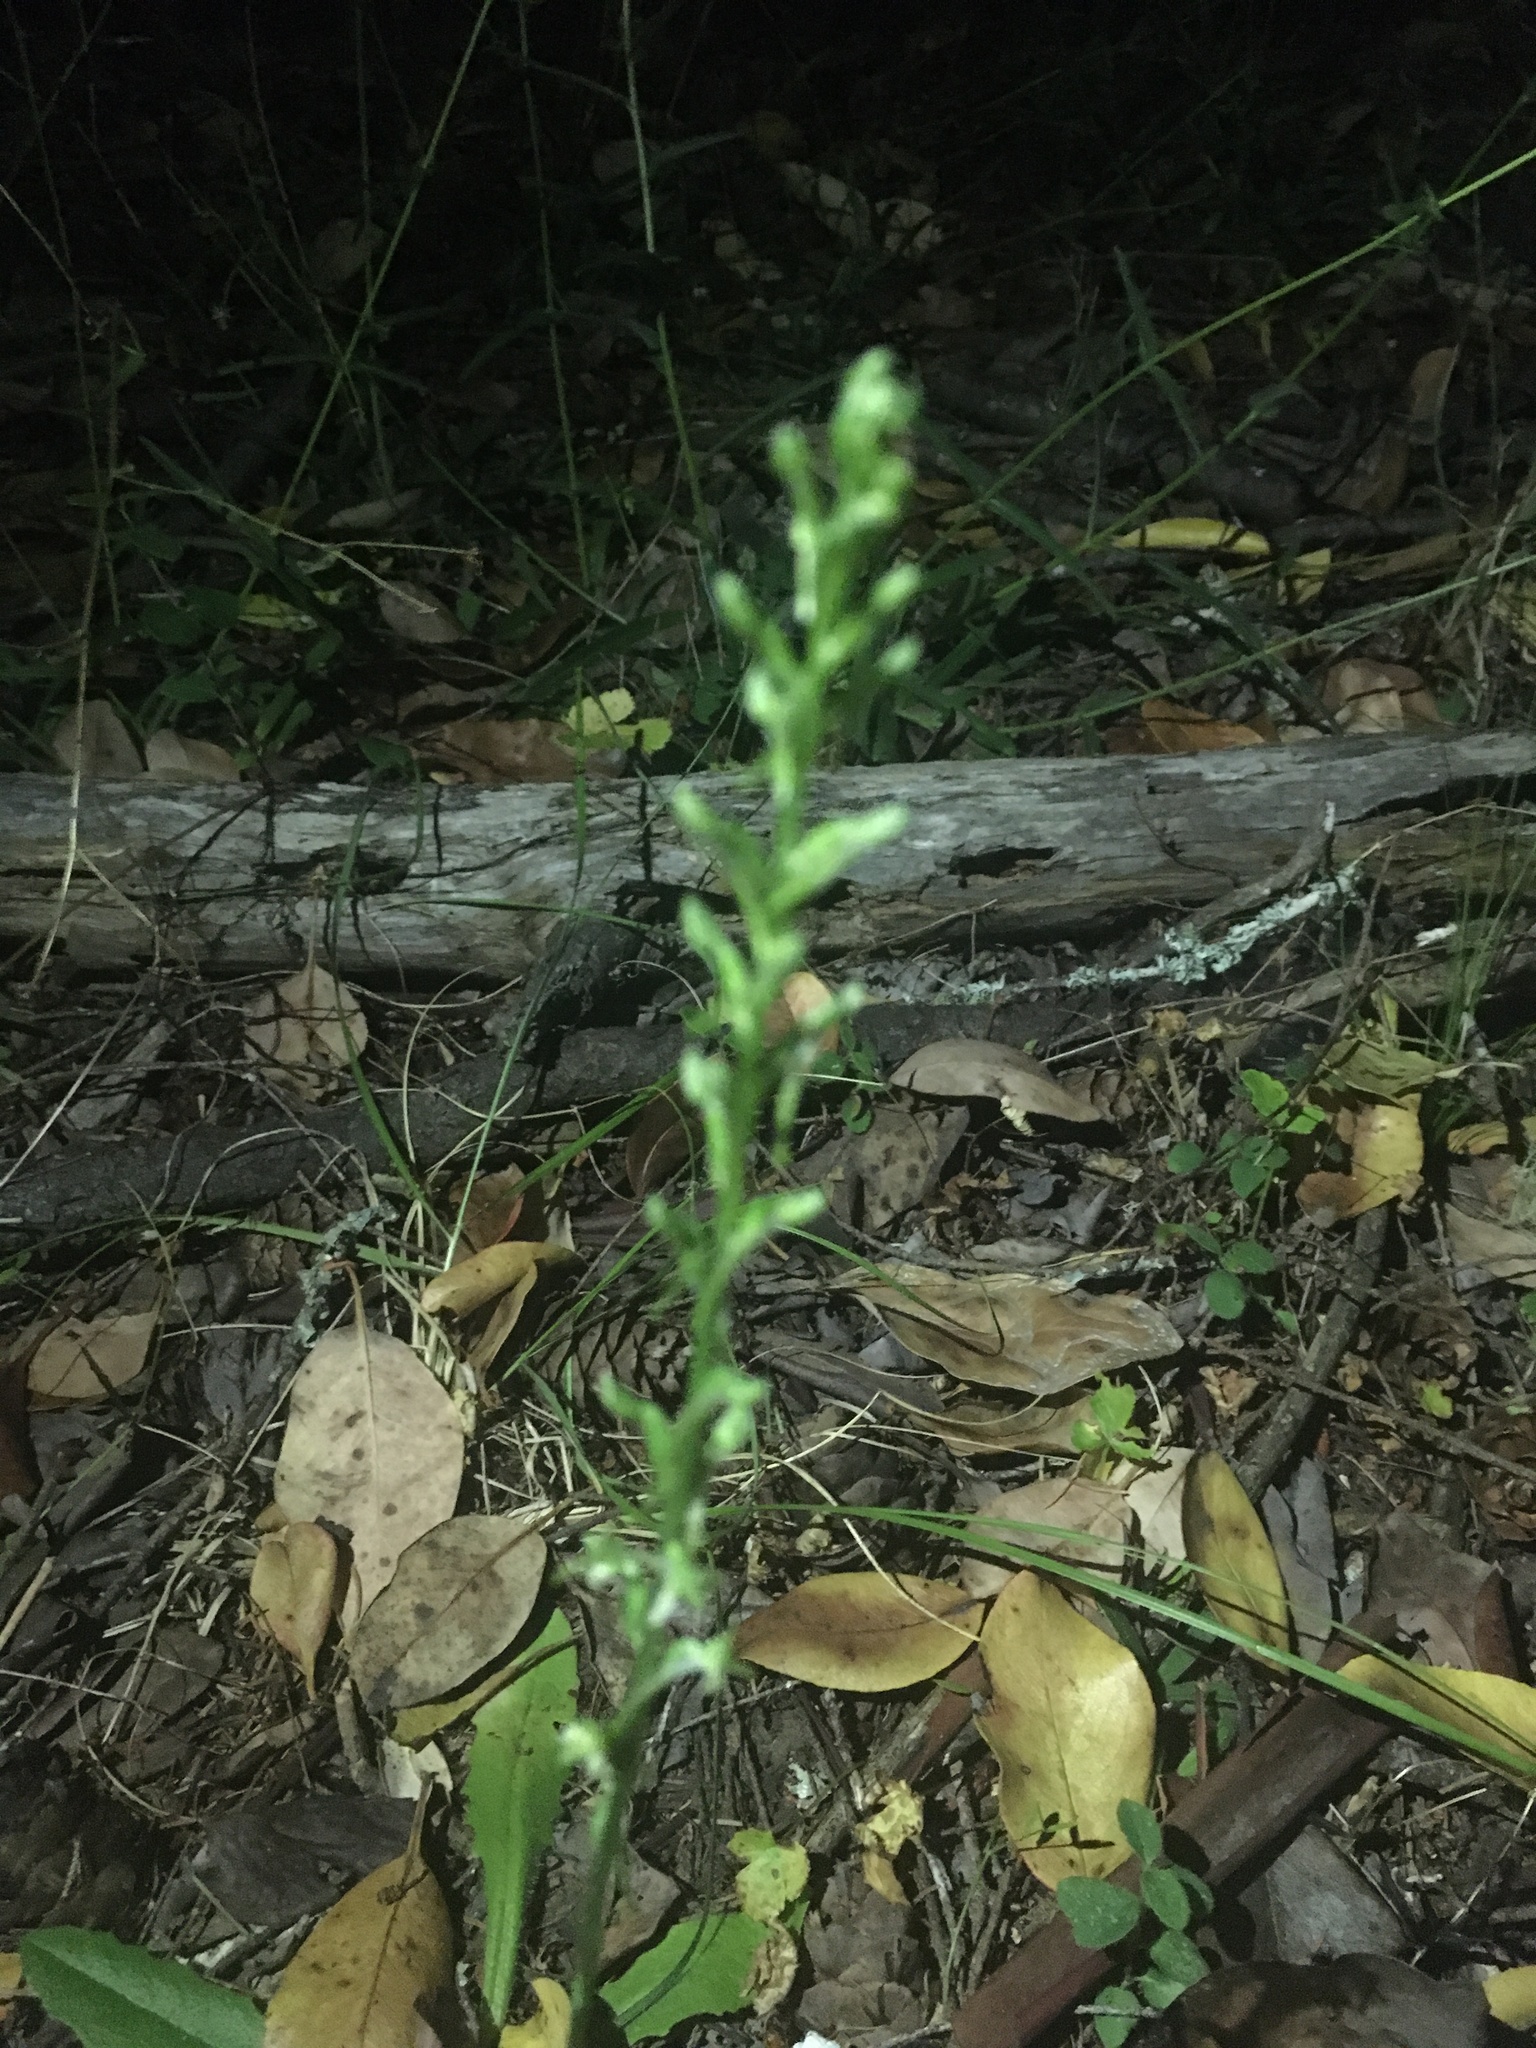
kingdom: Plantae
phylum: Tracheophyta
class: Liliopsida
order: Asparagales
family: Orchidaceae
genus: Platanthera
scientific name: Platanthera elongata
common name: Dense-flowered rein orchid
